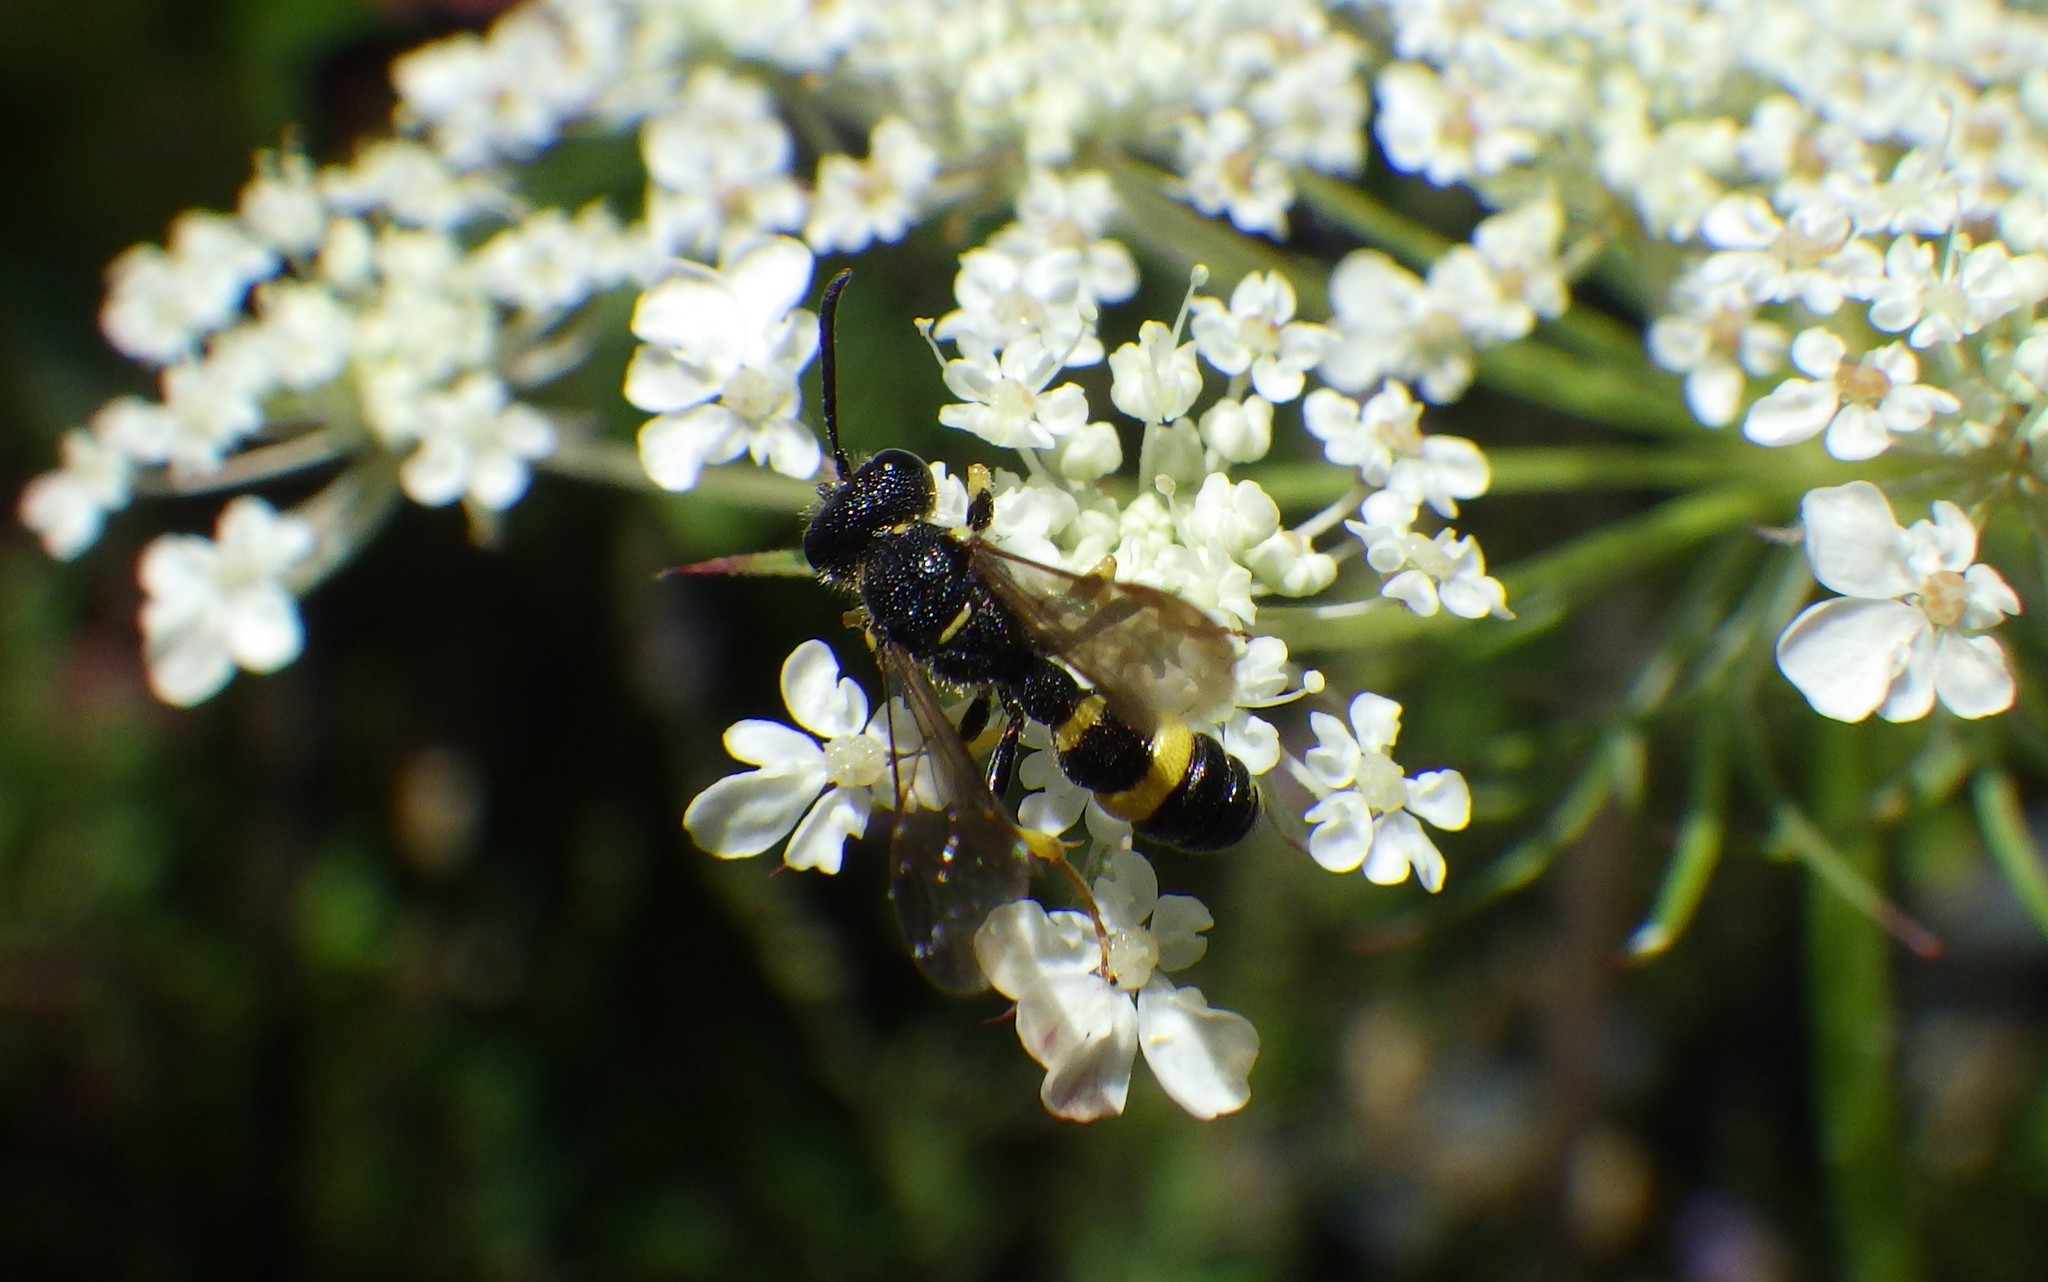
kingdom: Animalia
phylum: Arthropoda
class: Insecta
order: Hymenoptera
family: Crabronidae
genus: Cerceris
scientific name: Cerceris rybyensis
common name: Ornate tailed digger wasp
